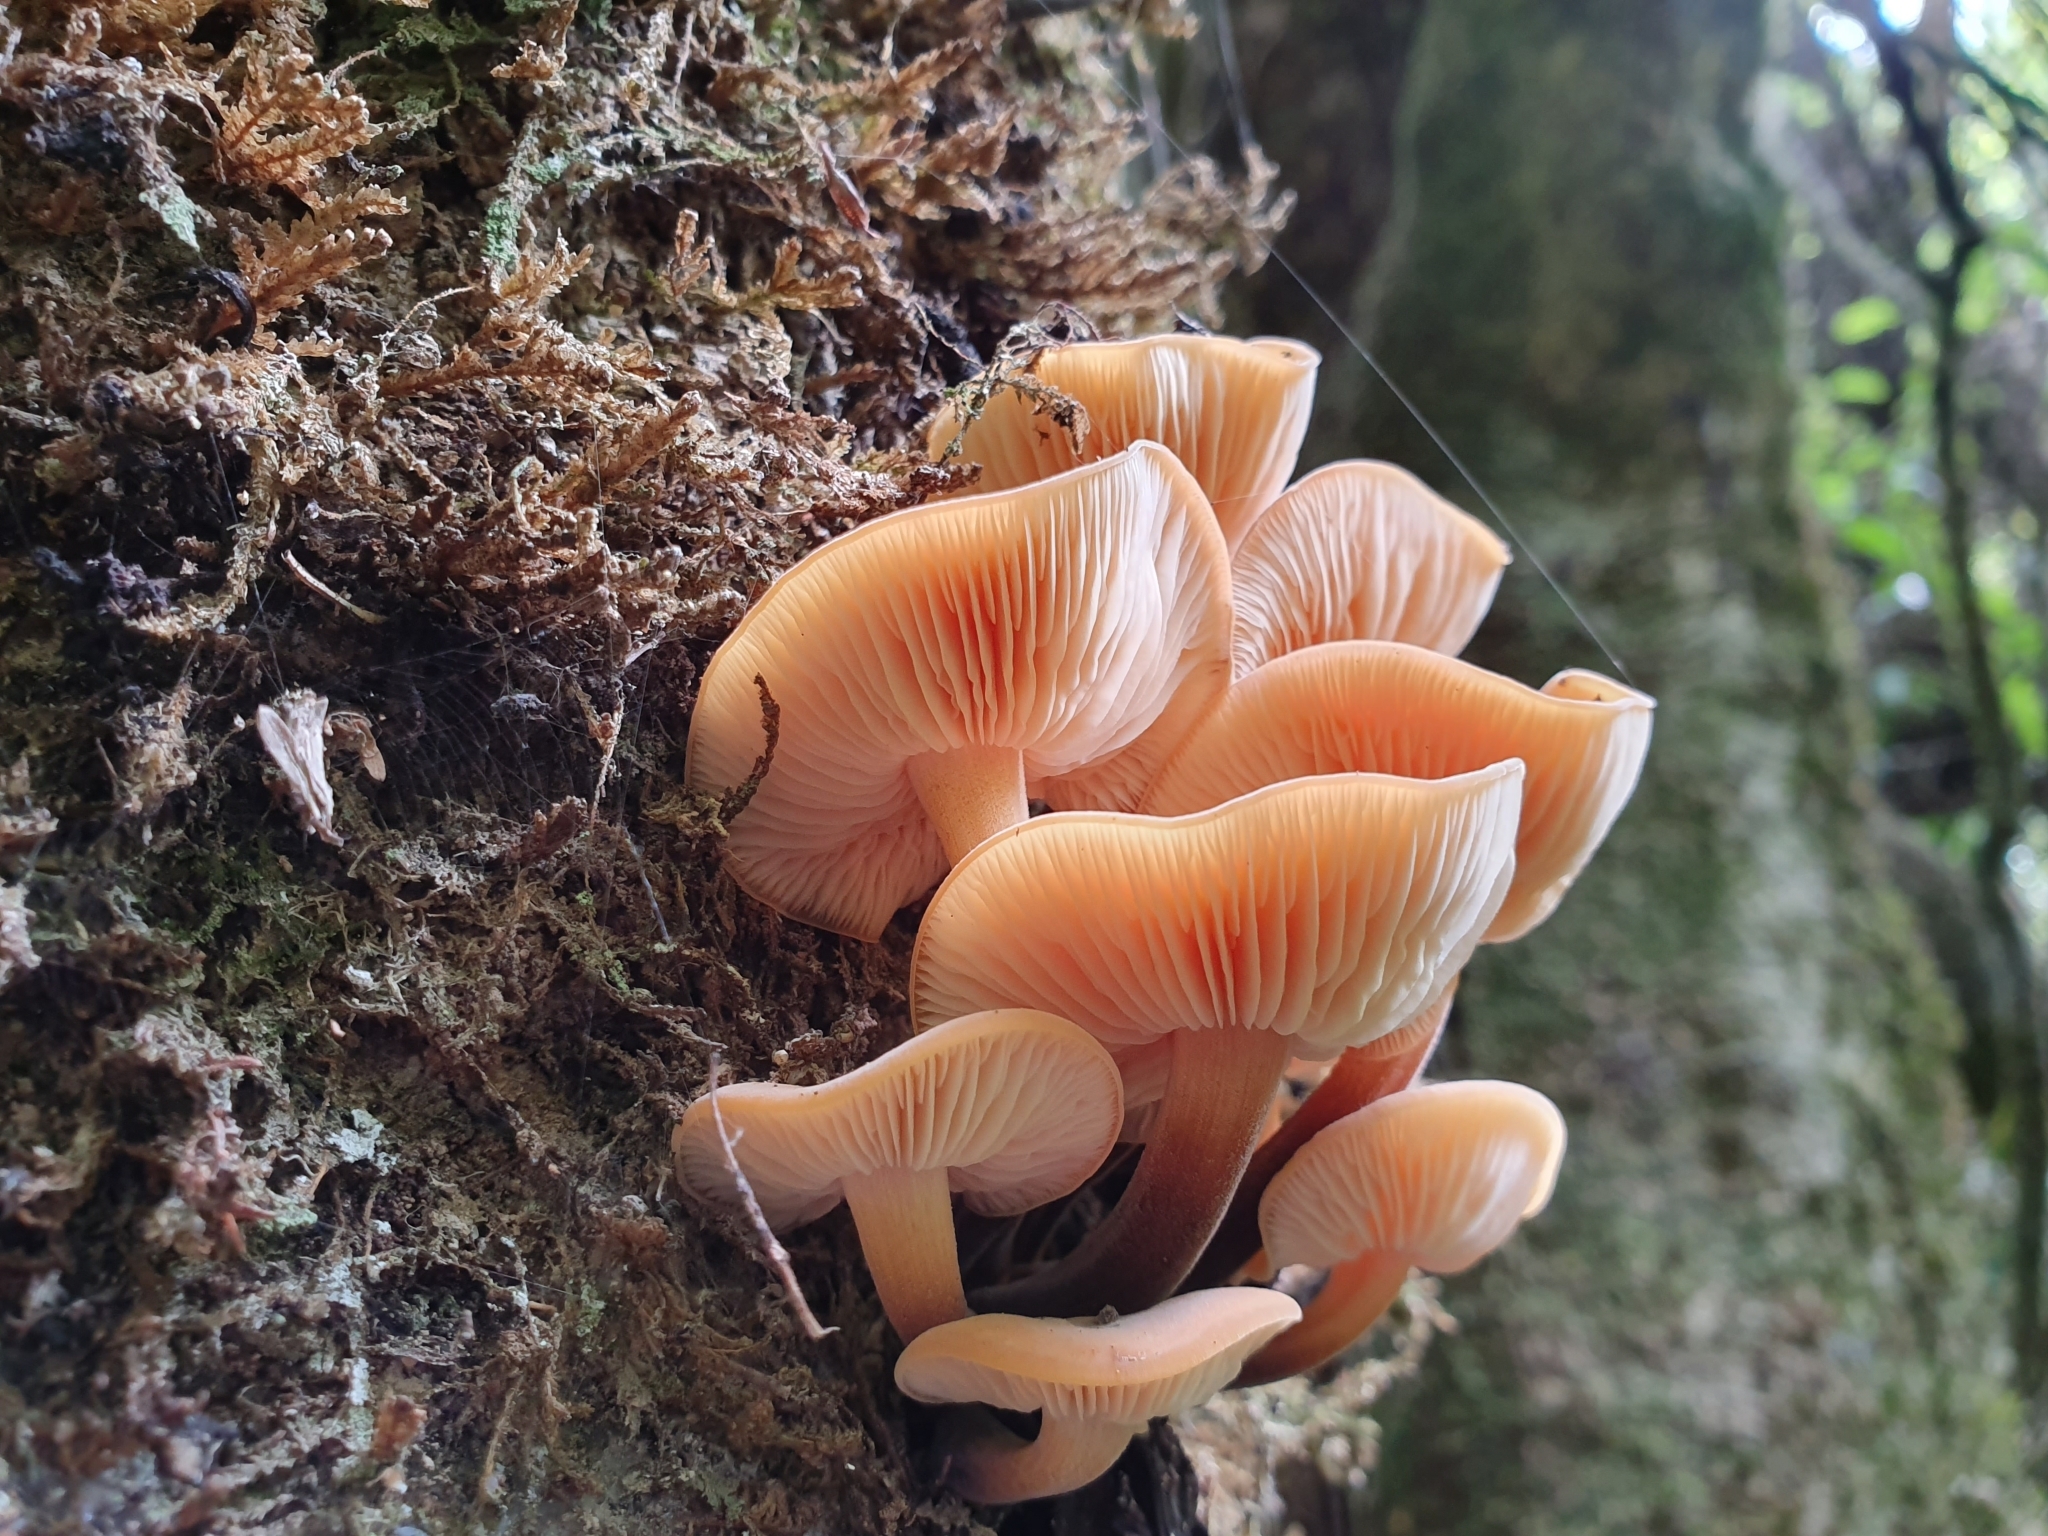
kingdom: Fungi
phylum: Basidiomycota
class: Agaricomycetes
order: Agaricales
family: Physalacriaceae
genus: Flammulina
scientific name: Flammulina velutipes
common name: Velvet shank
